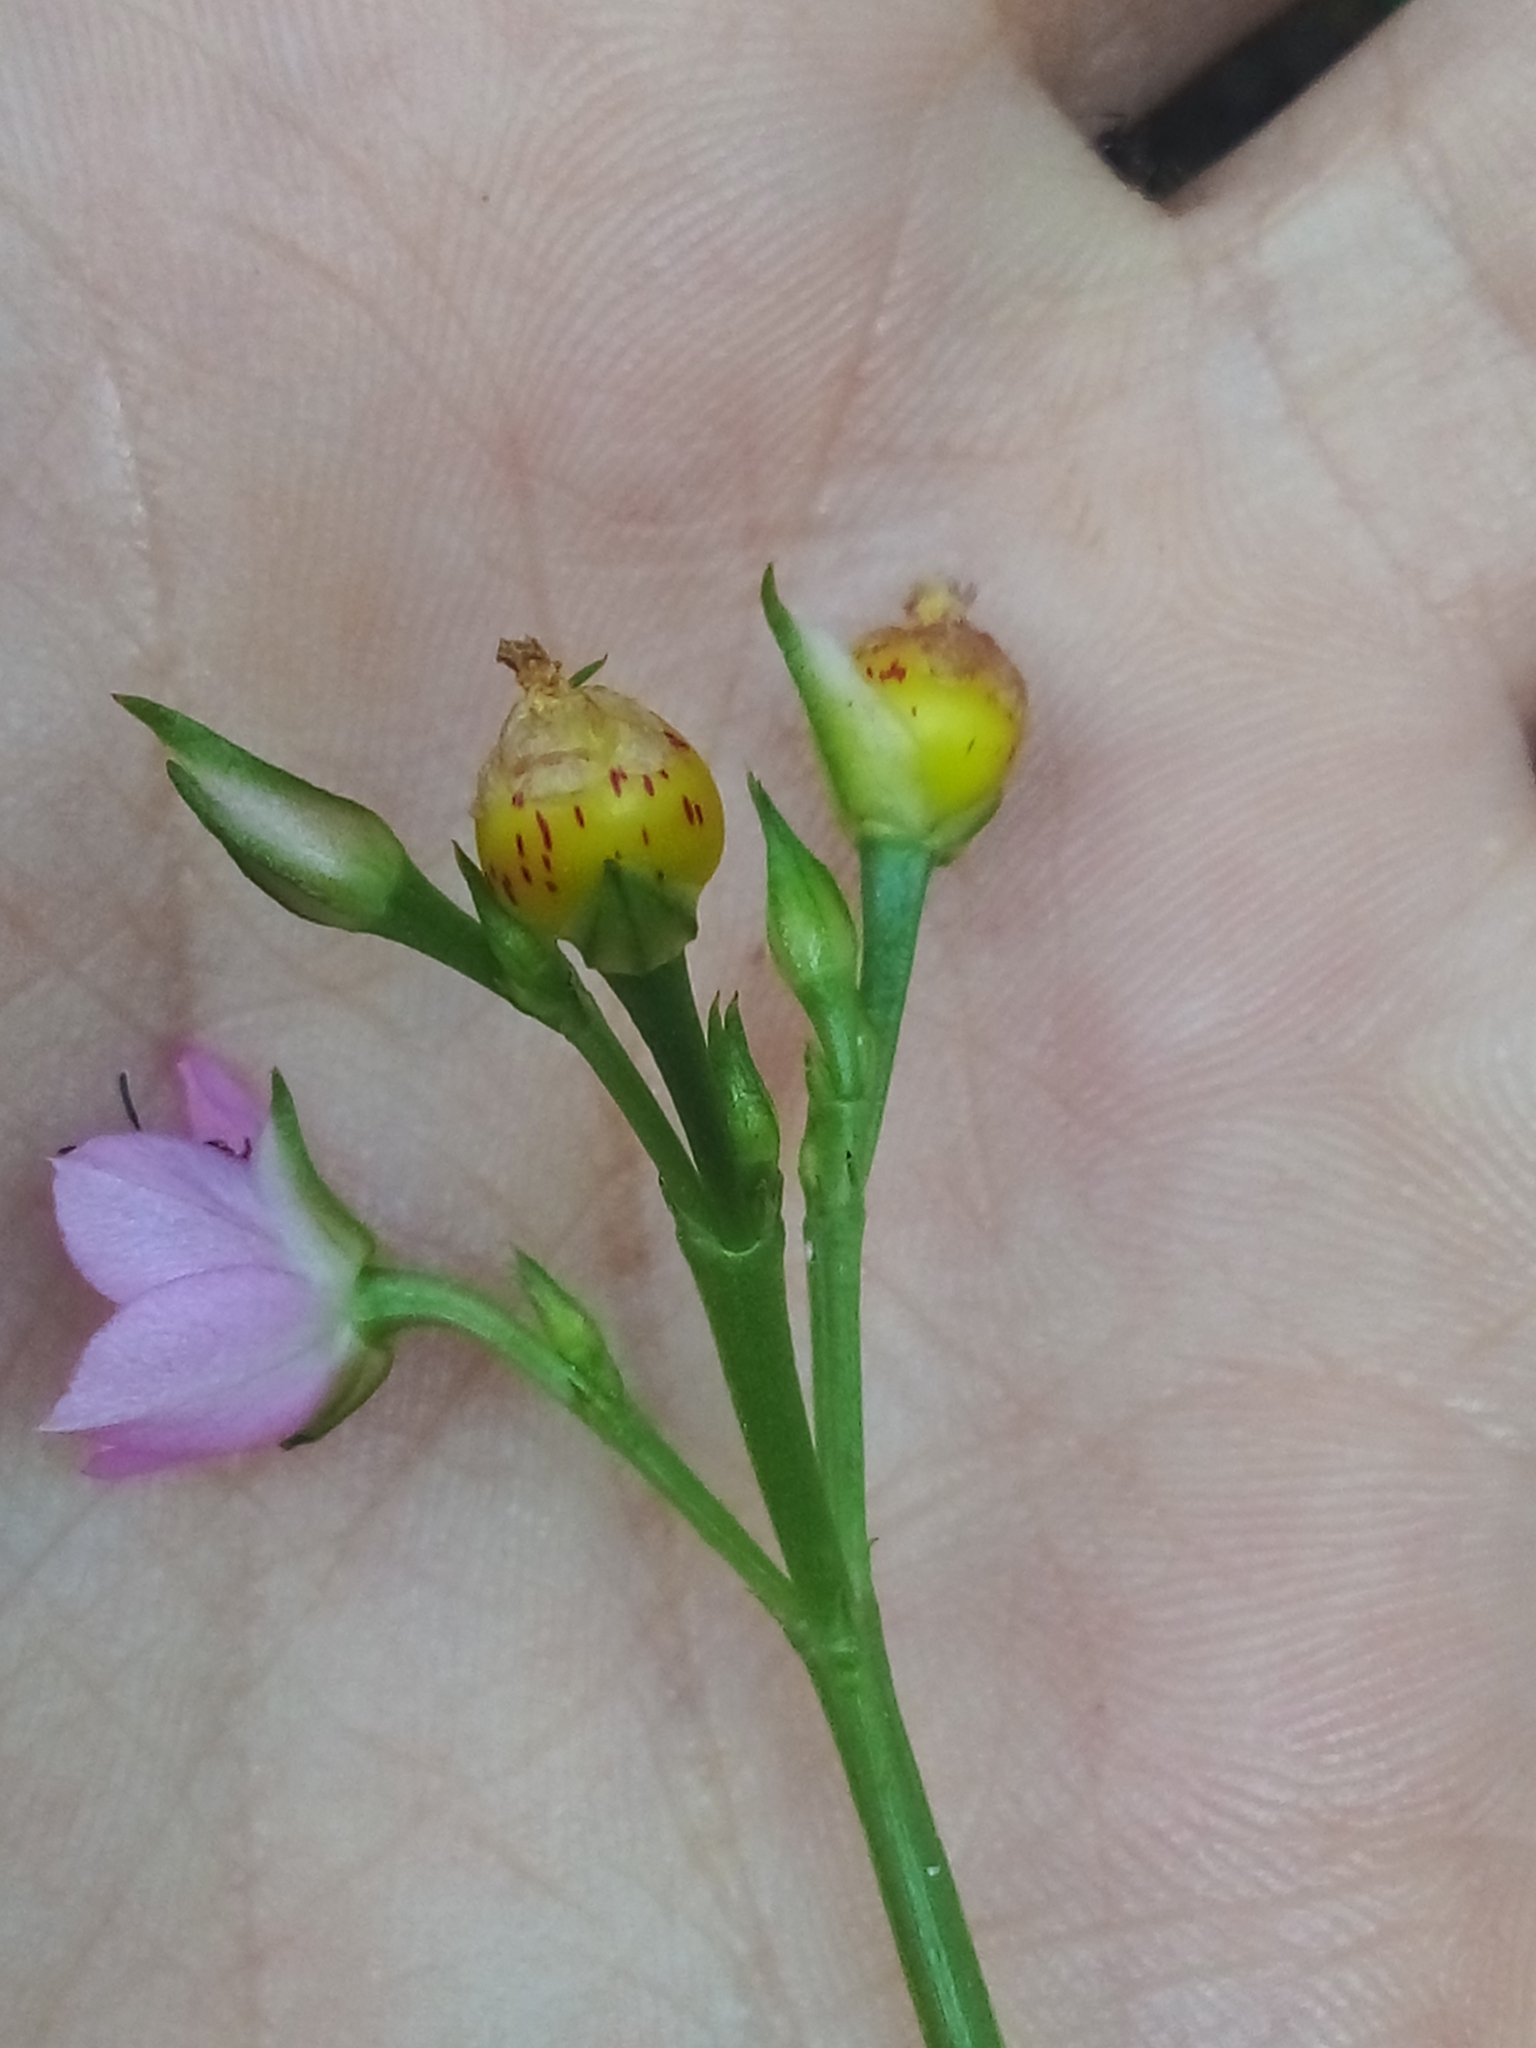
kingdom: Plantae
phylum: Tracheophyta
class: Magnoliopsida
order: Caryophyllales
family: Talinaceae
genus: Talinum
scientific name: Talinum fruticosum
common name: Verdolaga-francesa
